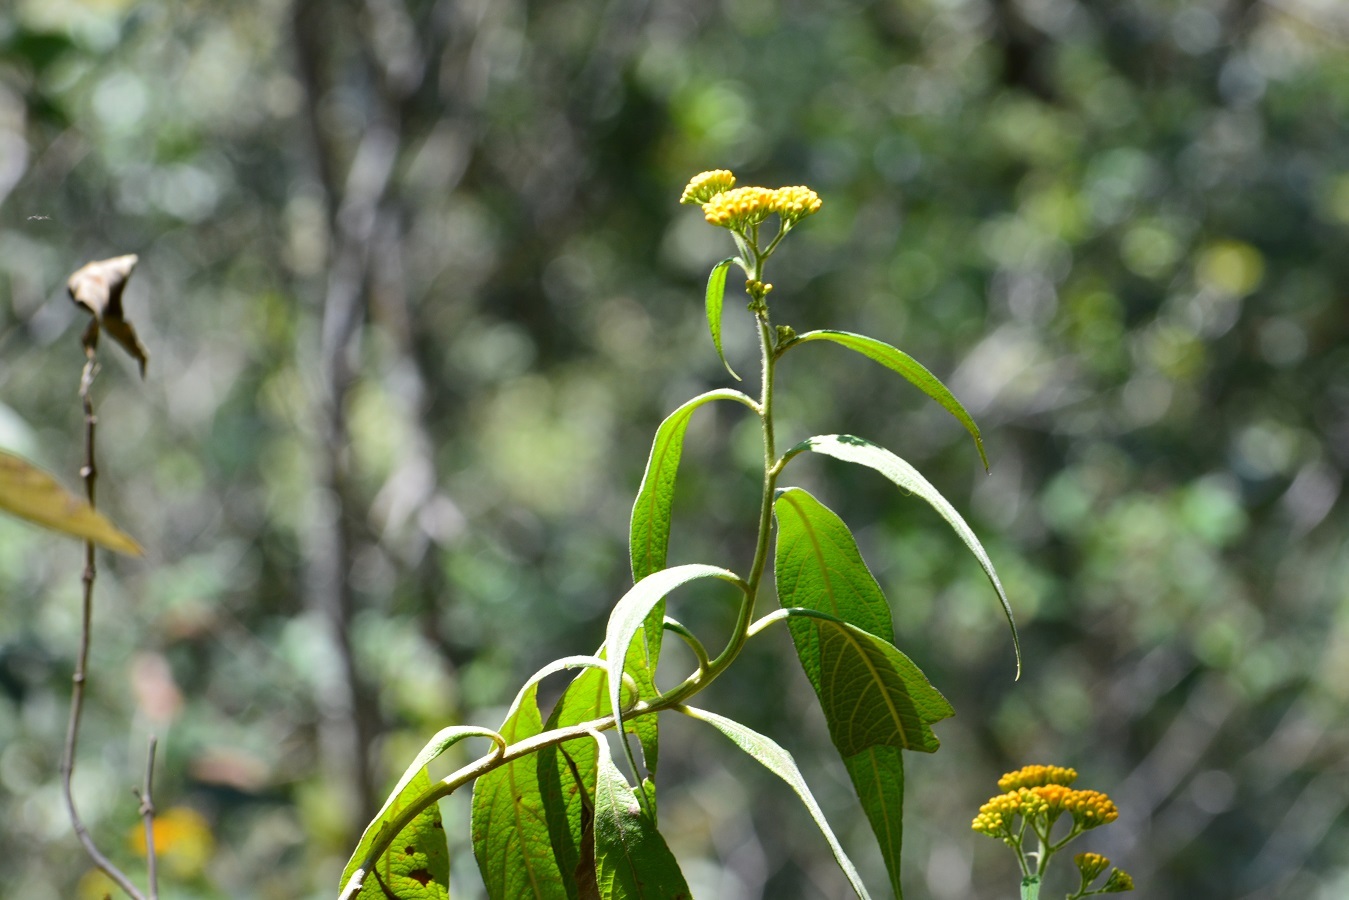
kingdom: Plantae
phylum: Tracheophyta
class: Magnoliopsida
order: Asterales
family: Asteraceae
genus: Neurolaena
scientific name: Neurolaena lamina
